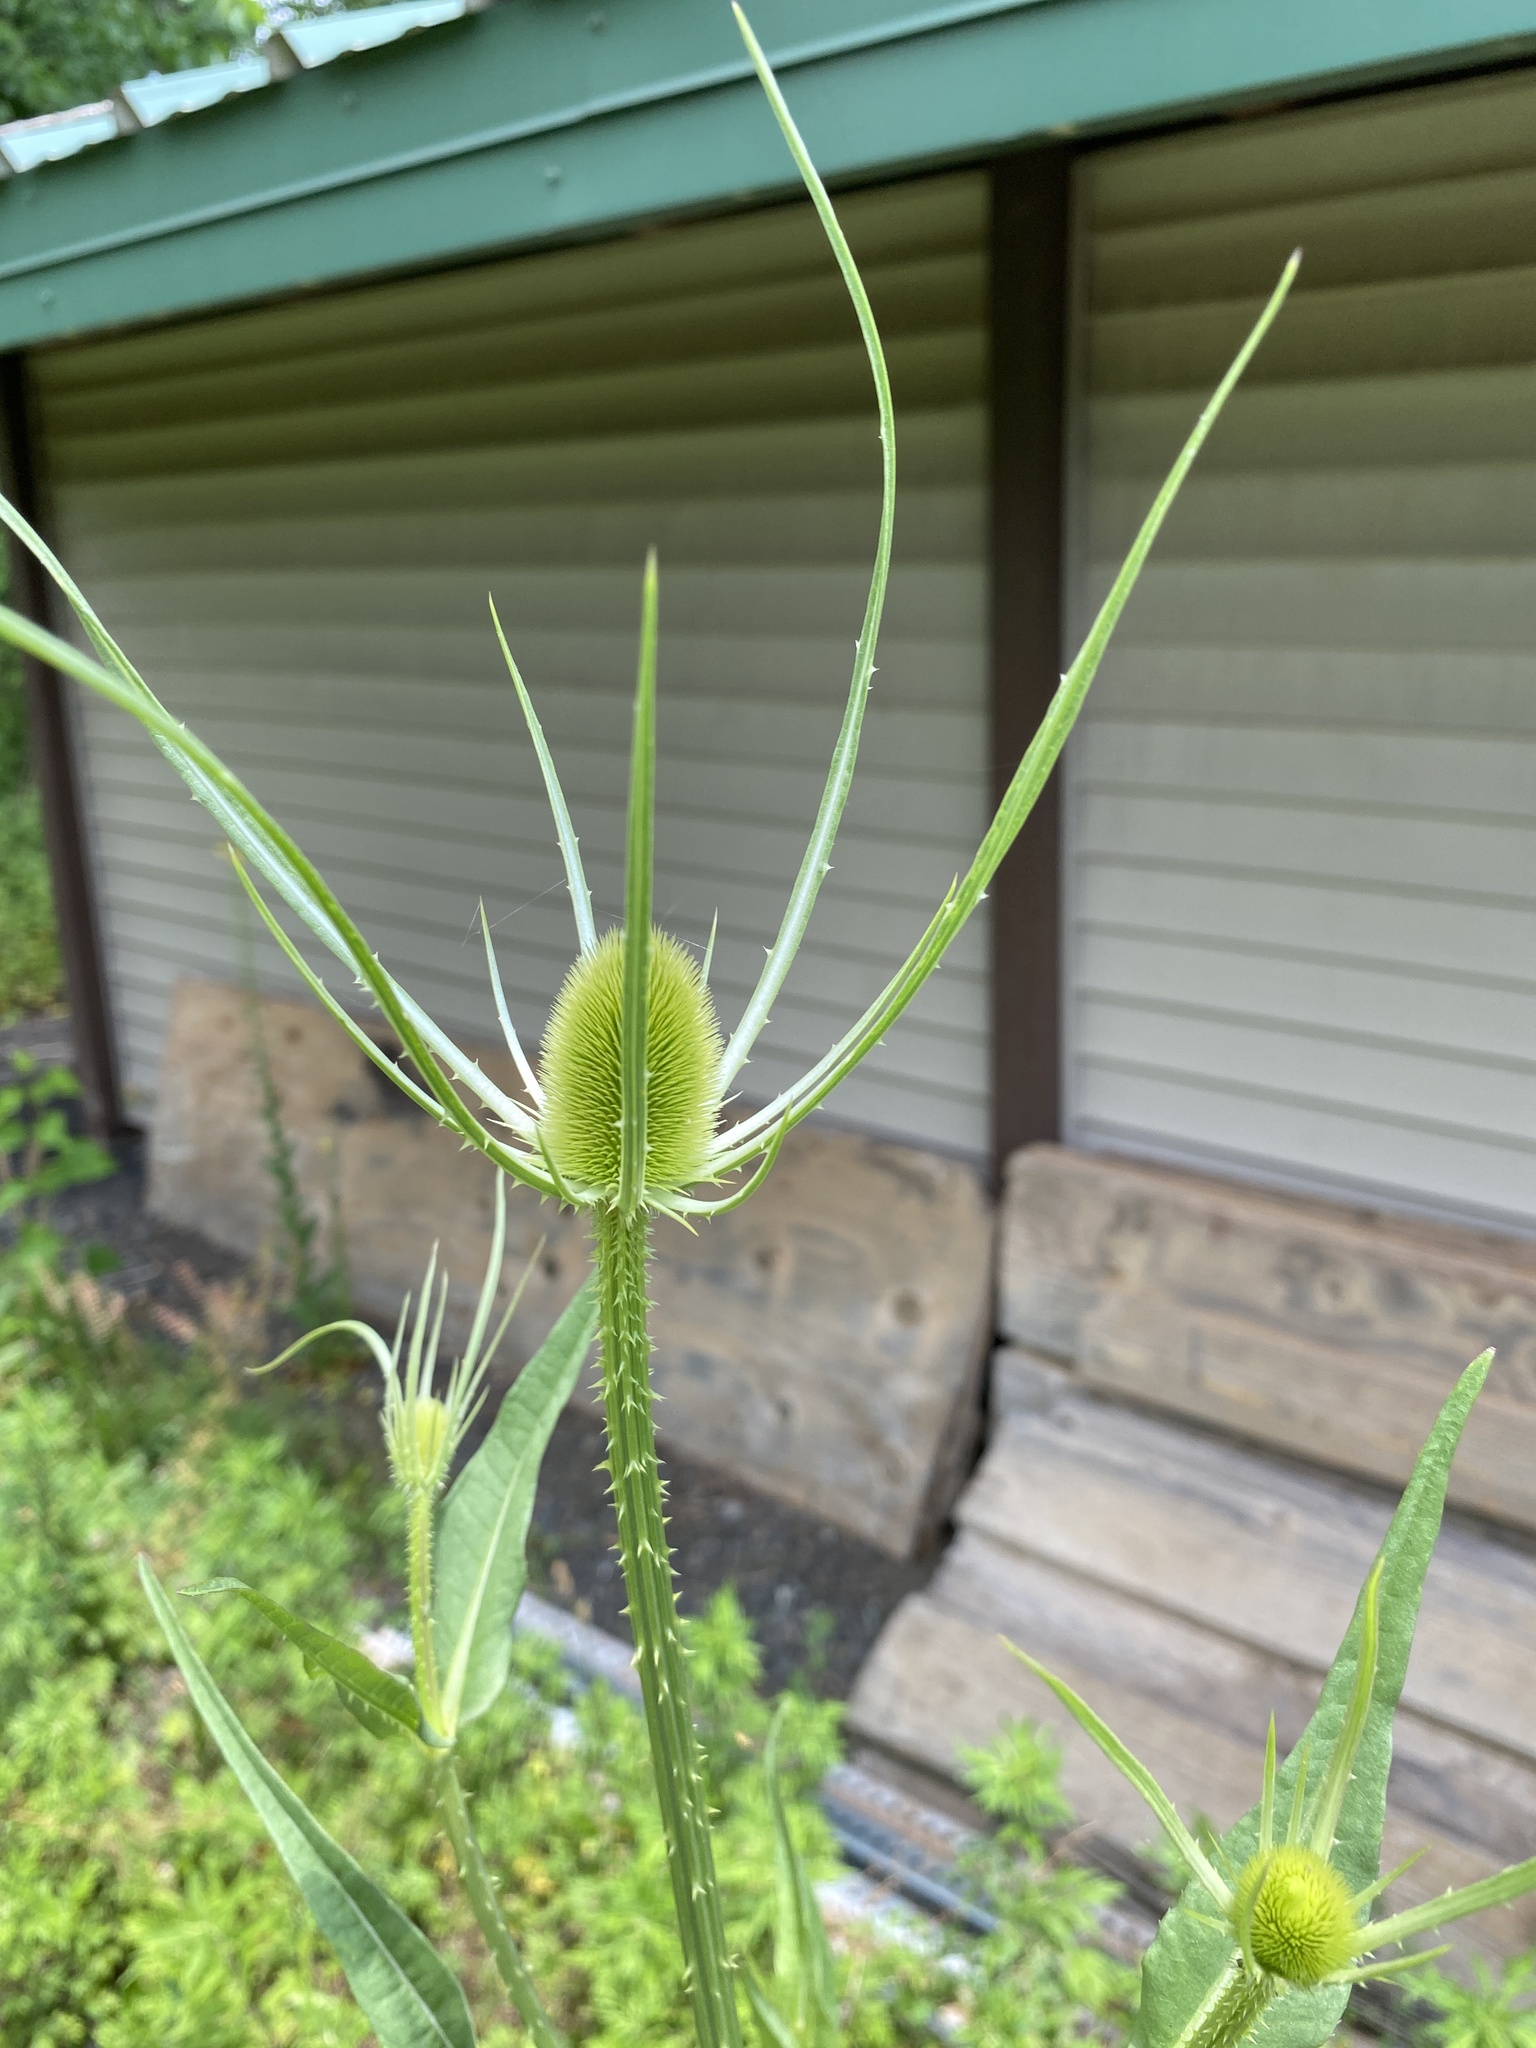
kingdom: Plantae
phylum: Tracheophyta
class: Magnoliopsida
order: Dipsacales
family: Caprifoliaceae
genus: Dipsacus
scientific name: Dipsacus fullonum
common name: Teasel
